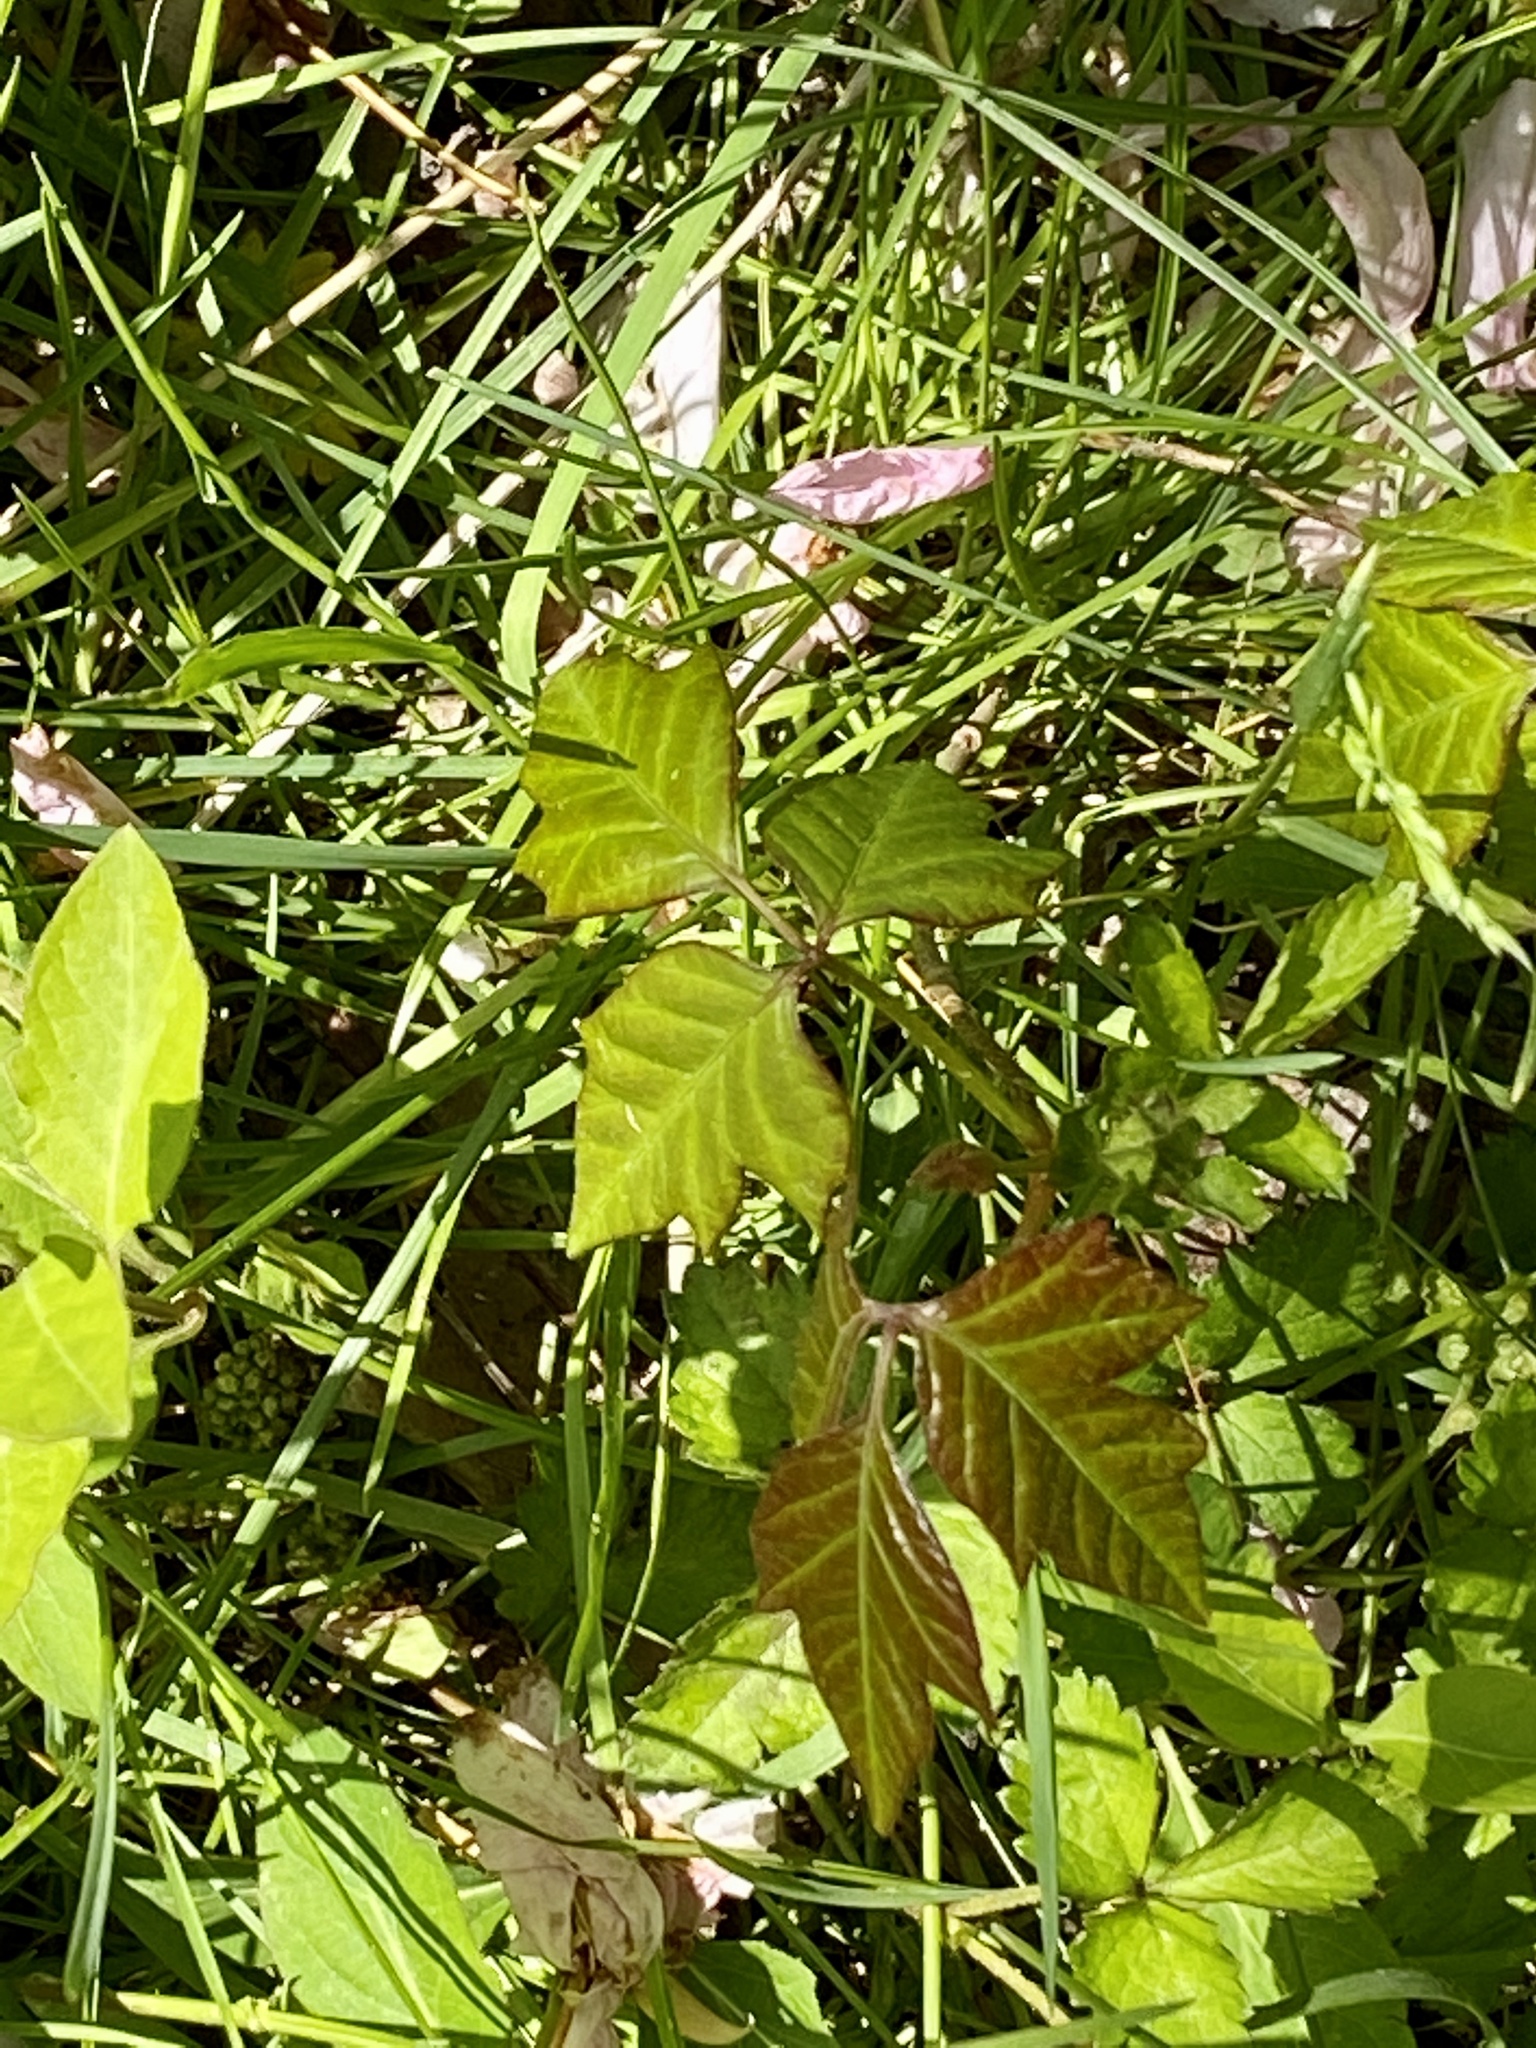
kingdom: Plantae
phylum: Tracheophyta
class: Magnoliopsida
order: Sapindales
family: Anacardiaceae
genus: Toxicodendron
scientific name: Toxicodendron radicans
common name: Poison ivy
